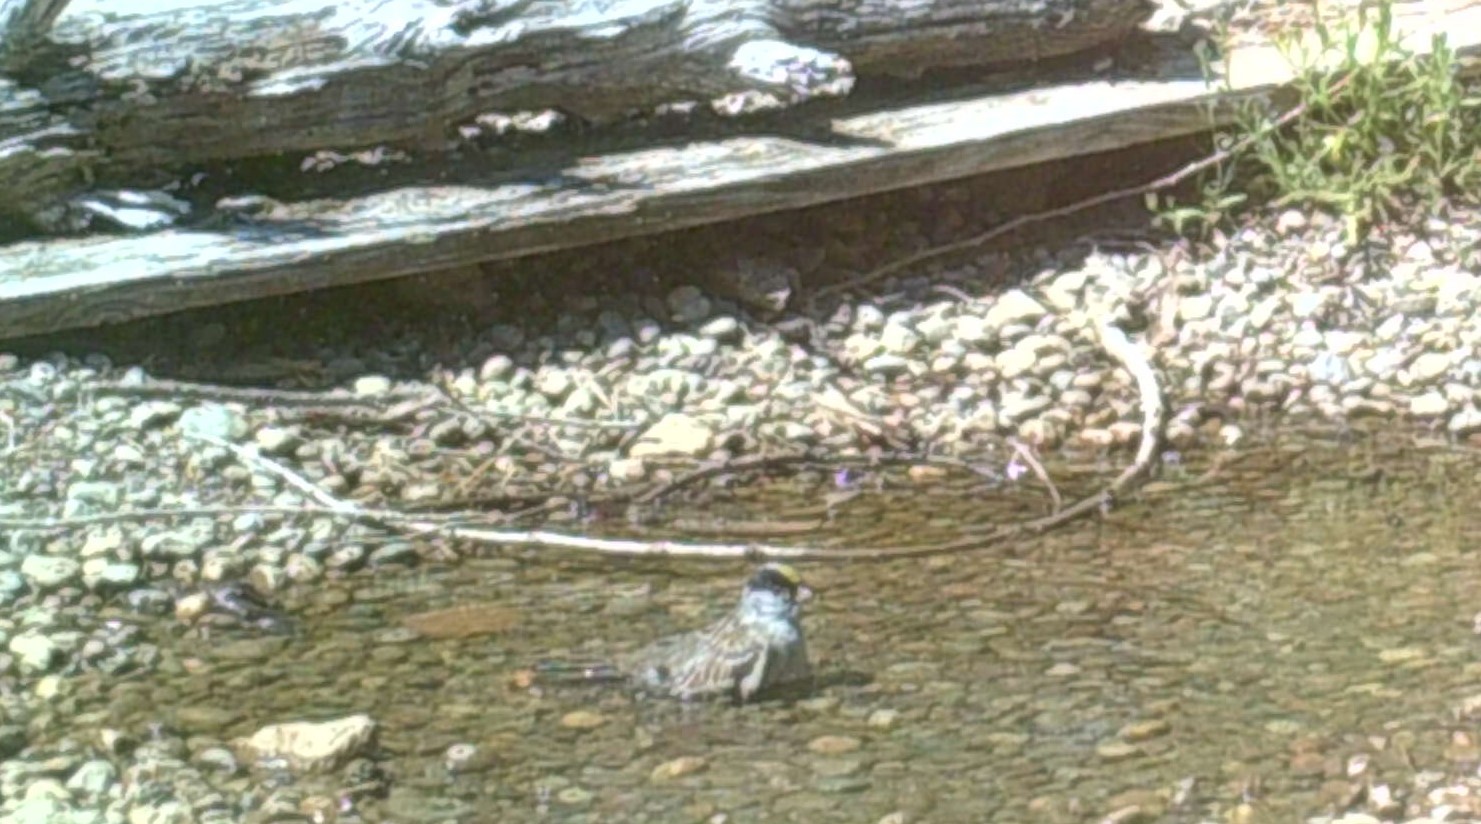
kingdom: Animalia
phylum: Chordata
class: Aves
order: Passeriformes
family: Passerellidae
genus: Zonotrichia
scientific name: Zonotrichia atricapilla
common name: Golden-crowned sparrow
